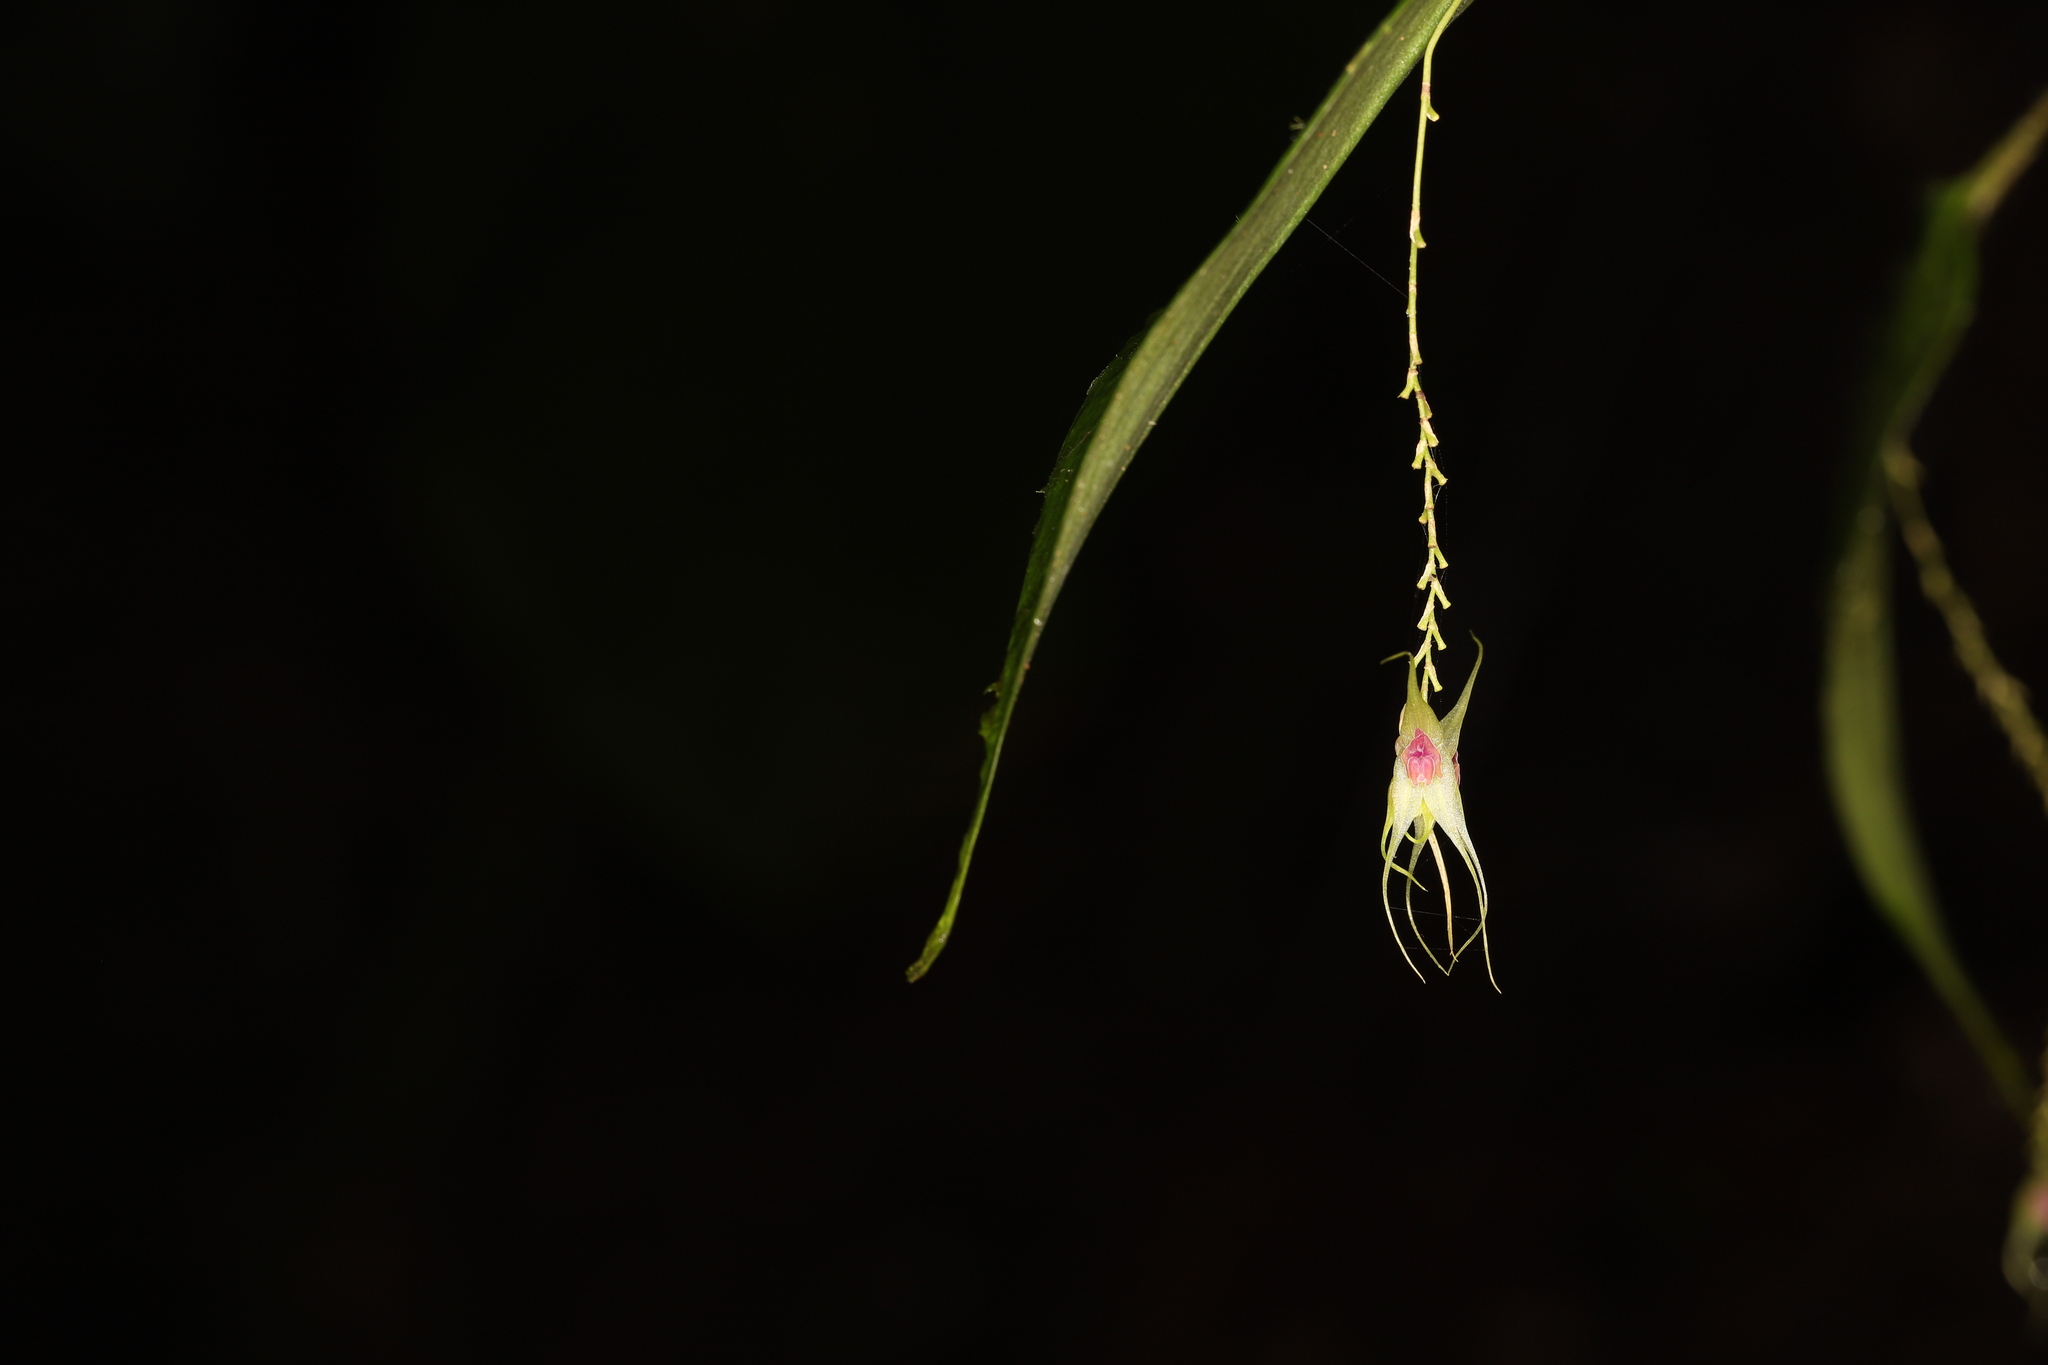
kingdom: Plantae
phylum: Tracheophyta
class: Liliopsida
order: Asparagales
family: Orchidaceae
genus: Lepanthes
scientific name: Lepanthes acutissima
